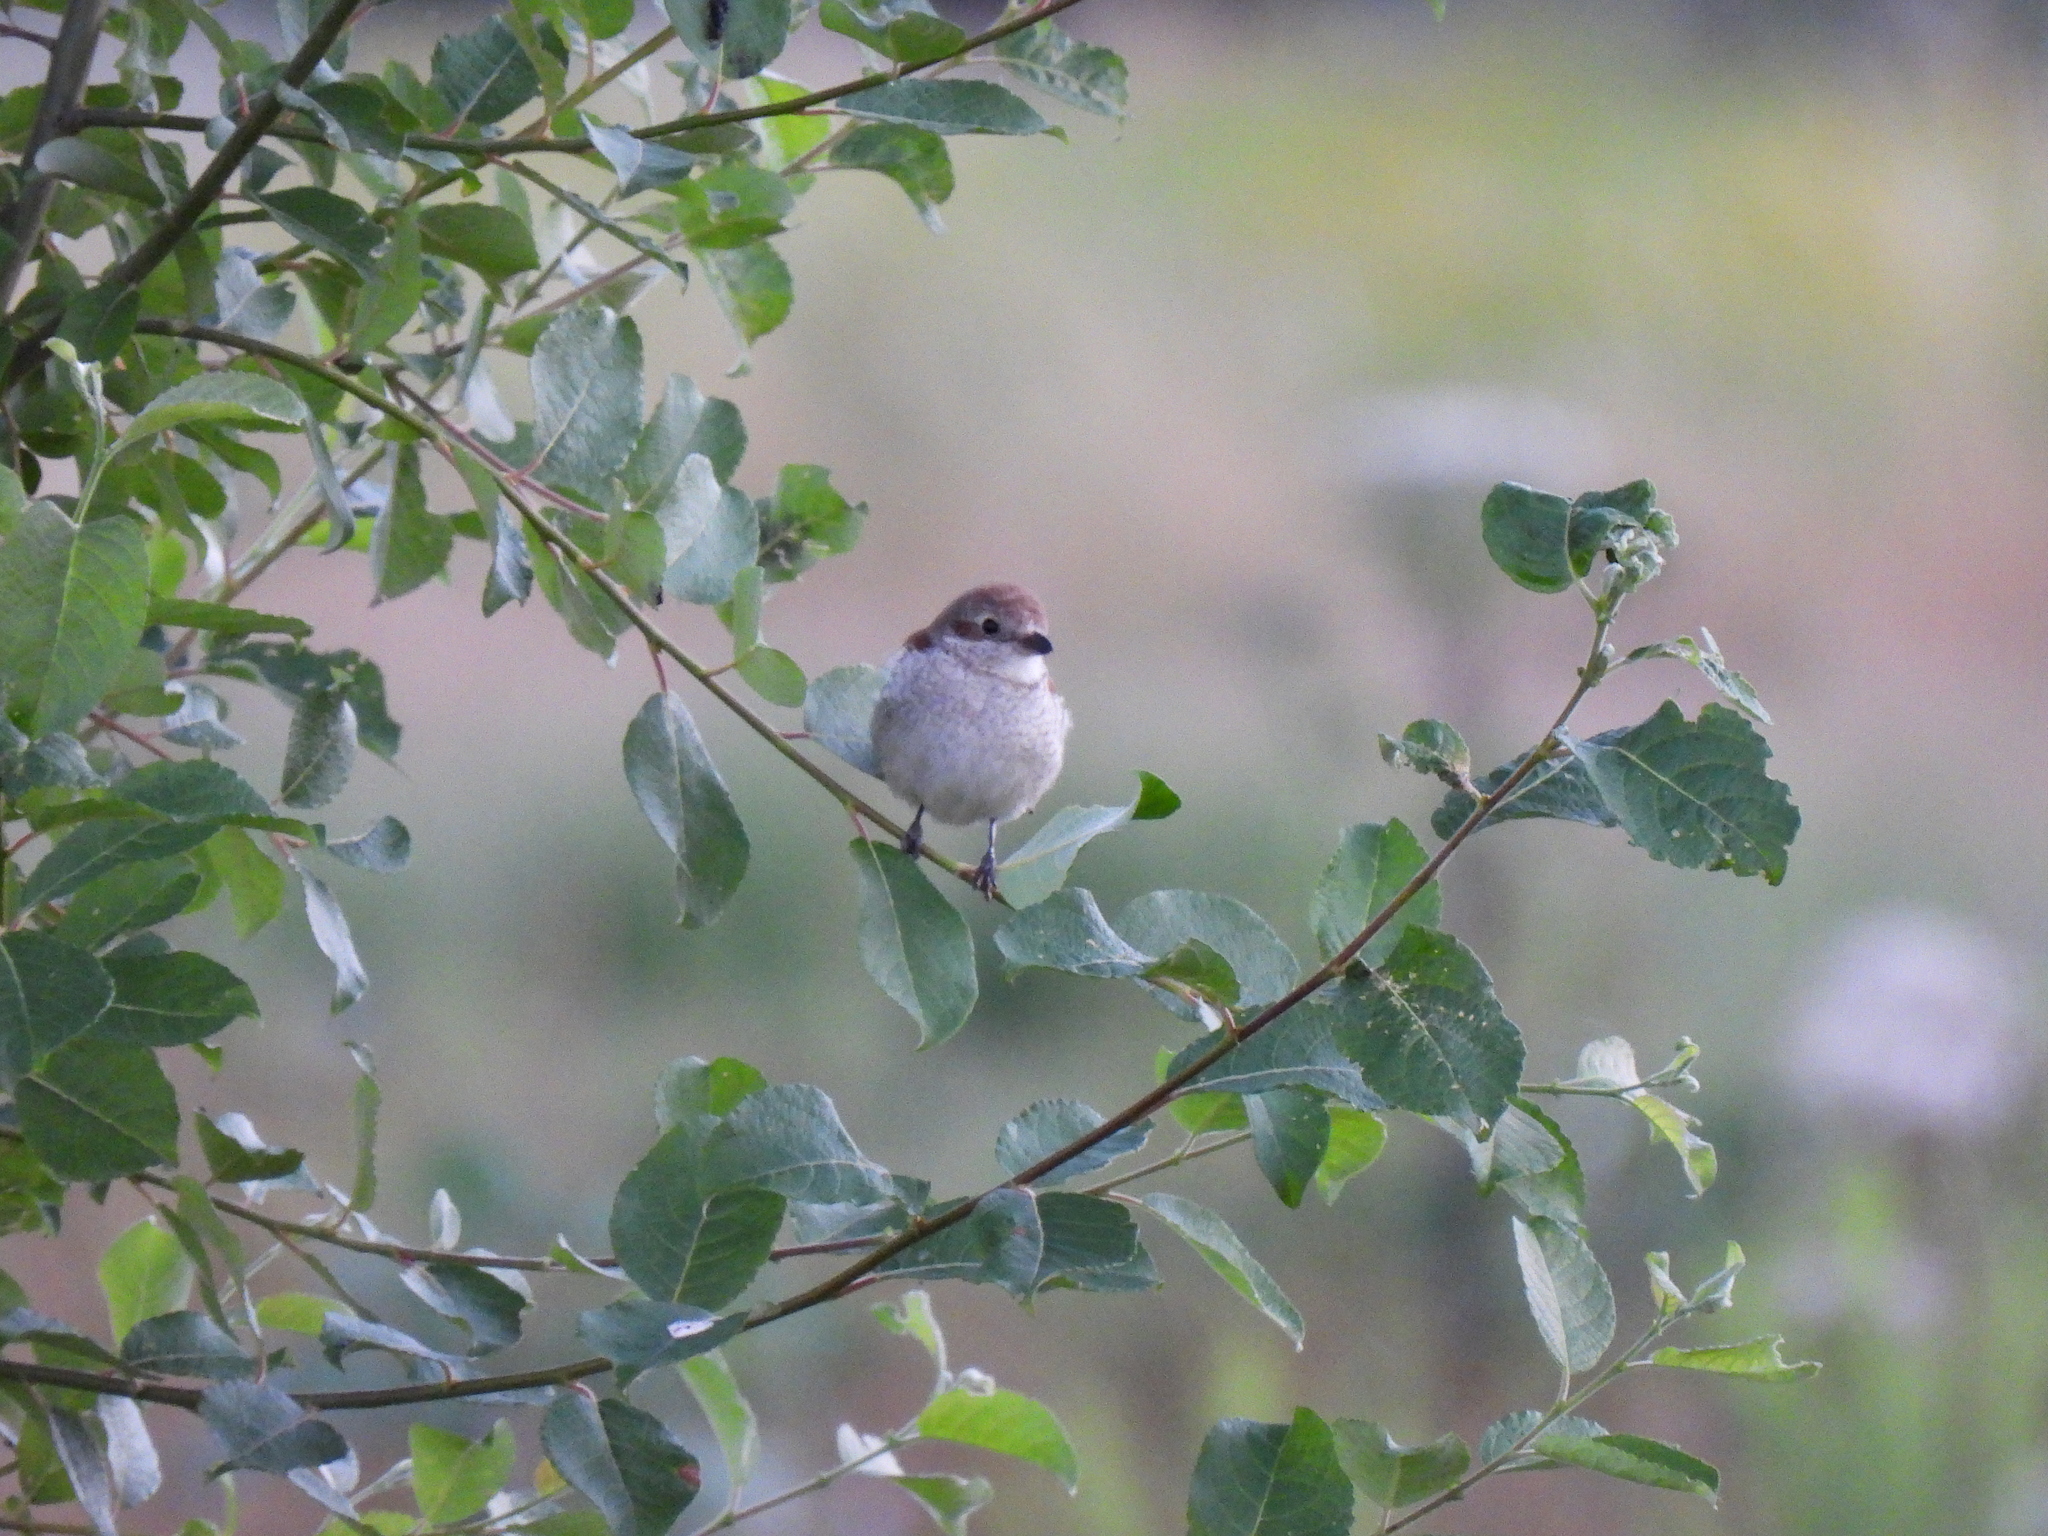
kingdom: Animalia
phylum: Chordata
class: Aves
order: Passeriformes
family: Laniidae
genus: Lanius
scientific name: Lanius collurio
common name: Red-backed shrike
